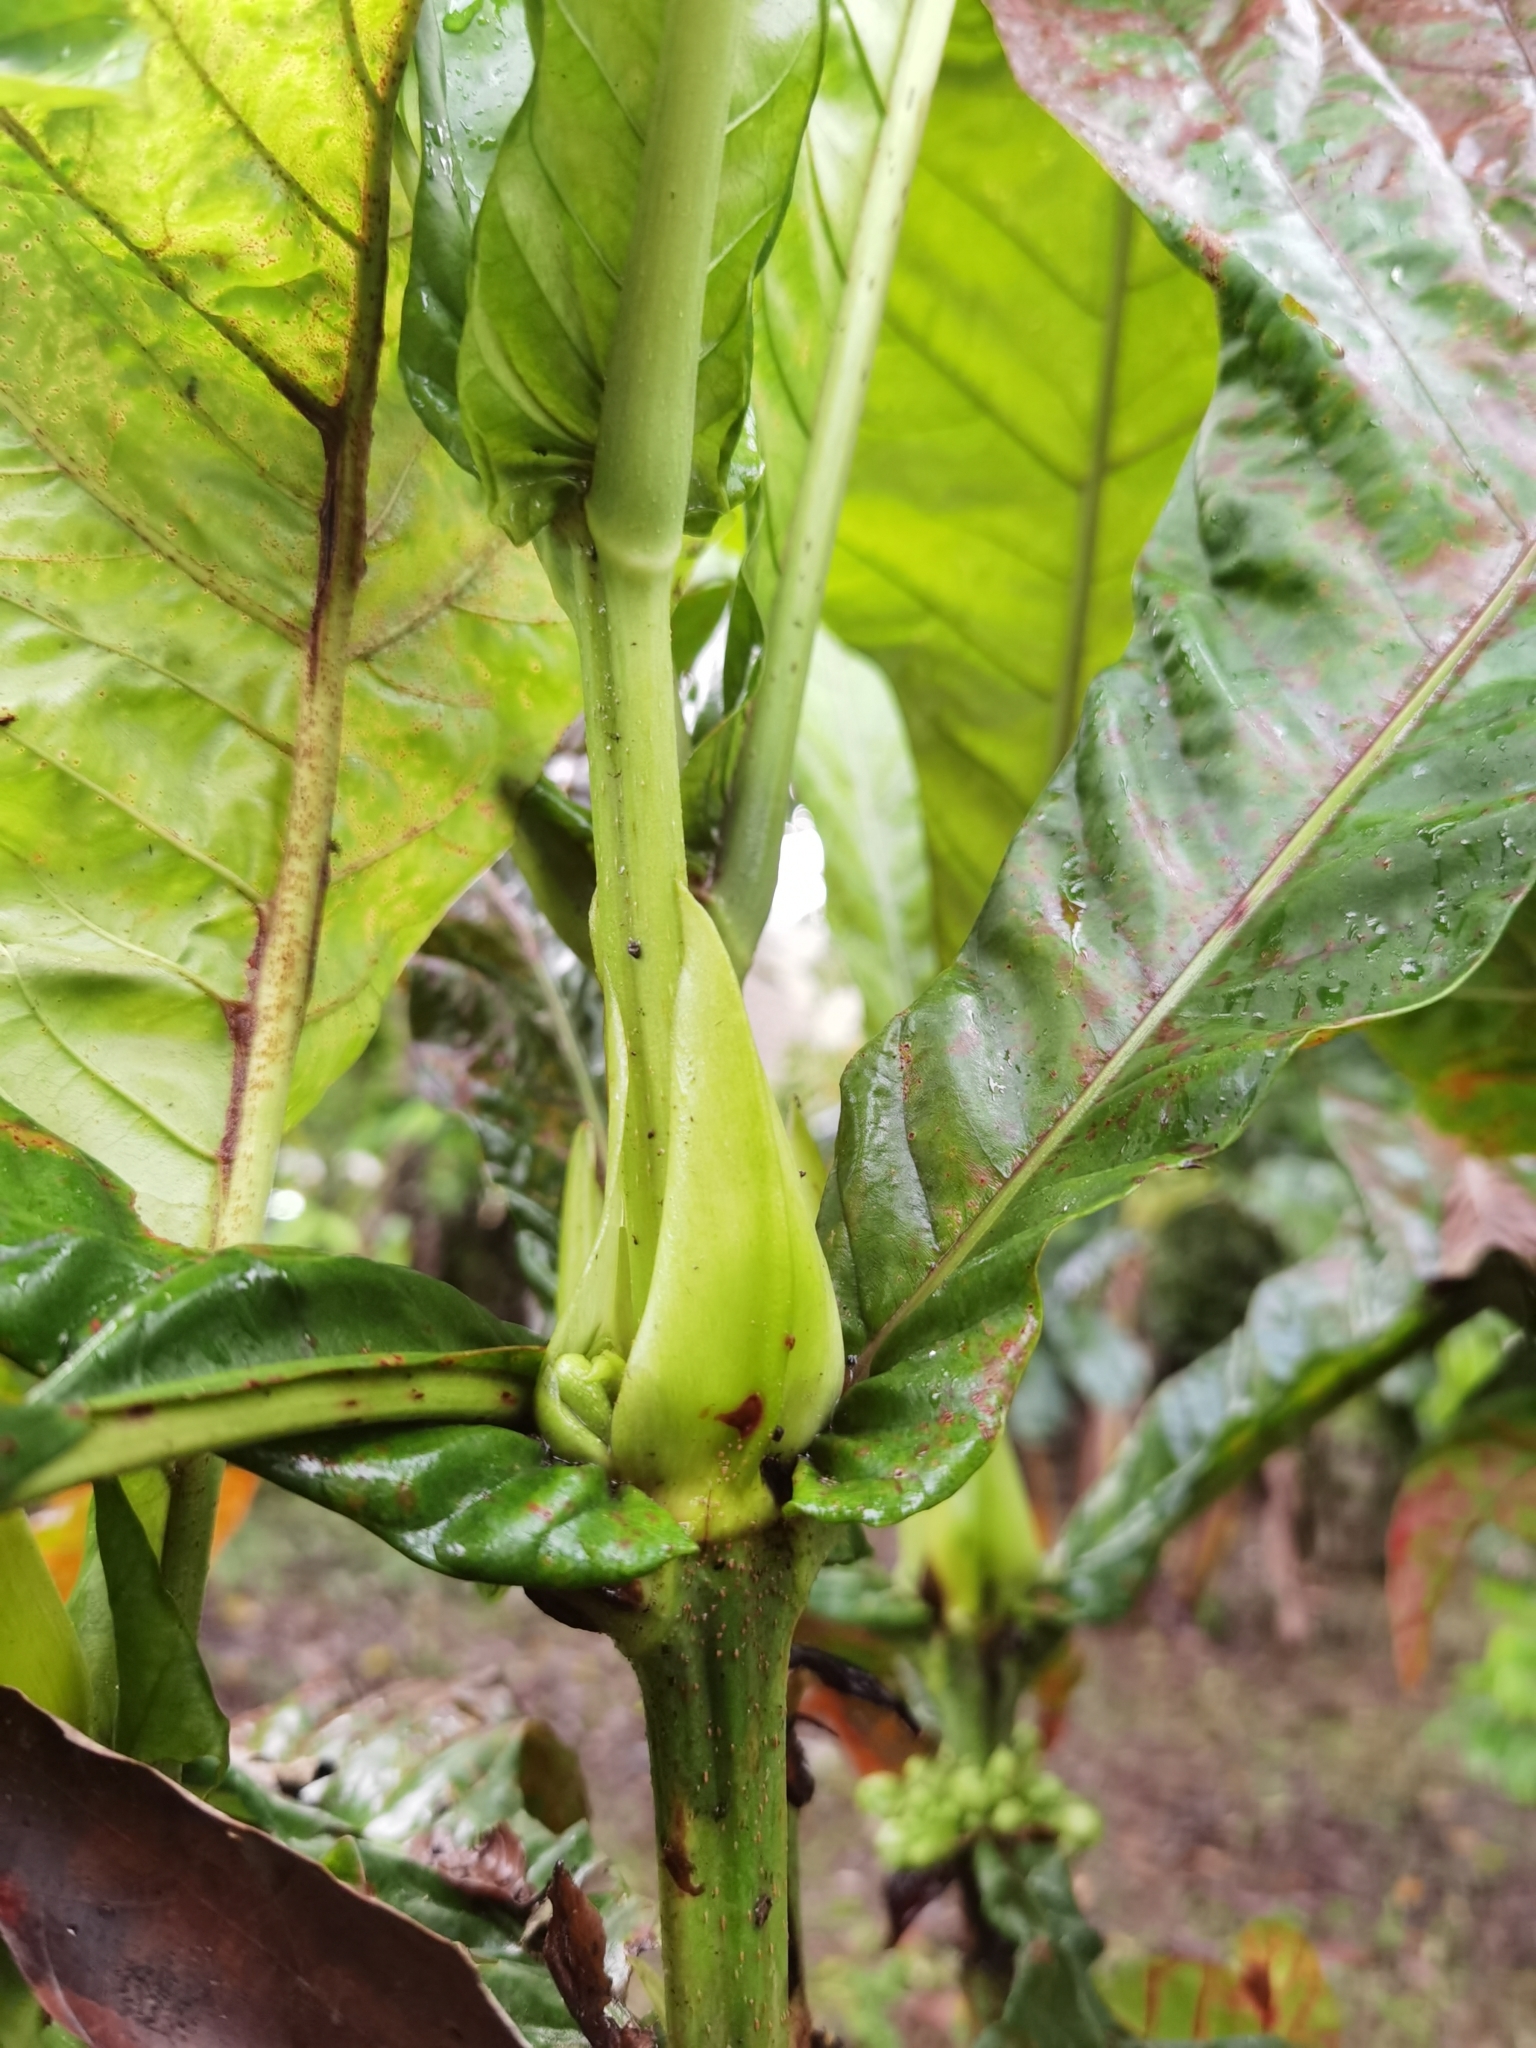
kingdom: Plantae
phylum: Tracheophyta
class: Magnoliopsida
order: Gentianales
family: Rubiaceae
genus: Pentagonia
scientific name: Pentagonia tinajita
